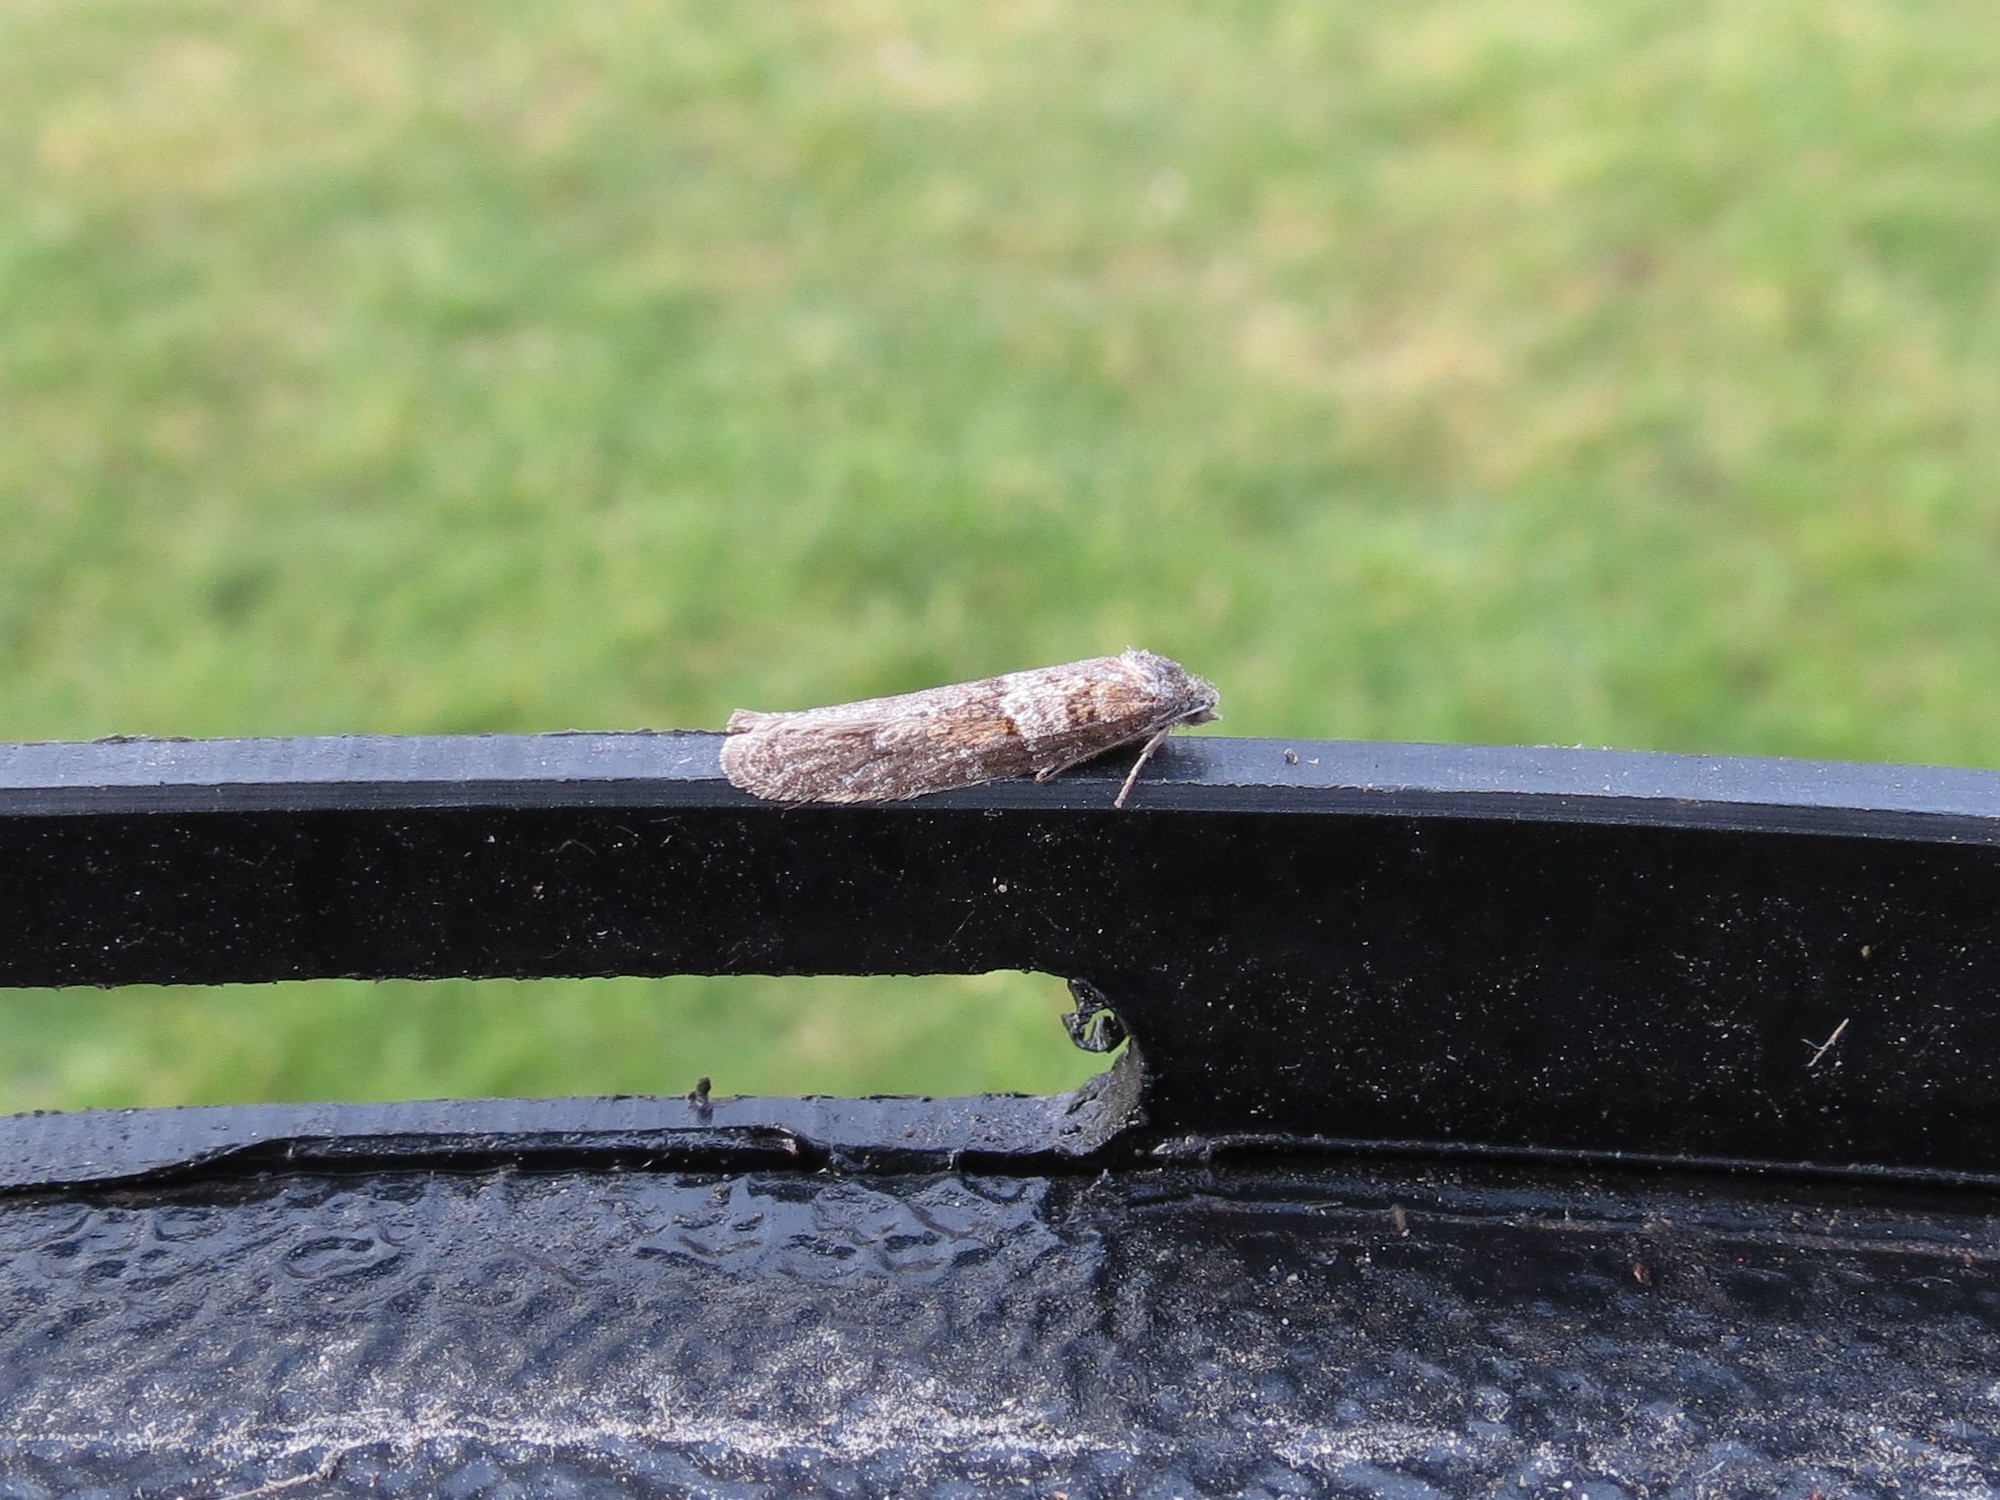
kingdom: Animalia
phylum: Arthropoda
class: Insecta
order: Lepidoptera
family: Tortricidae
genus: Tortricodes
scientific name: Tortricodes alternella
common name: Winter shade
